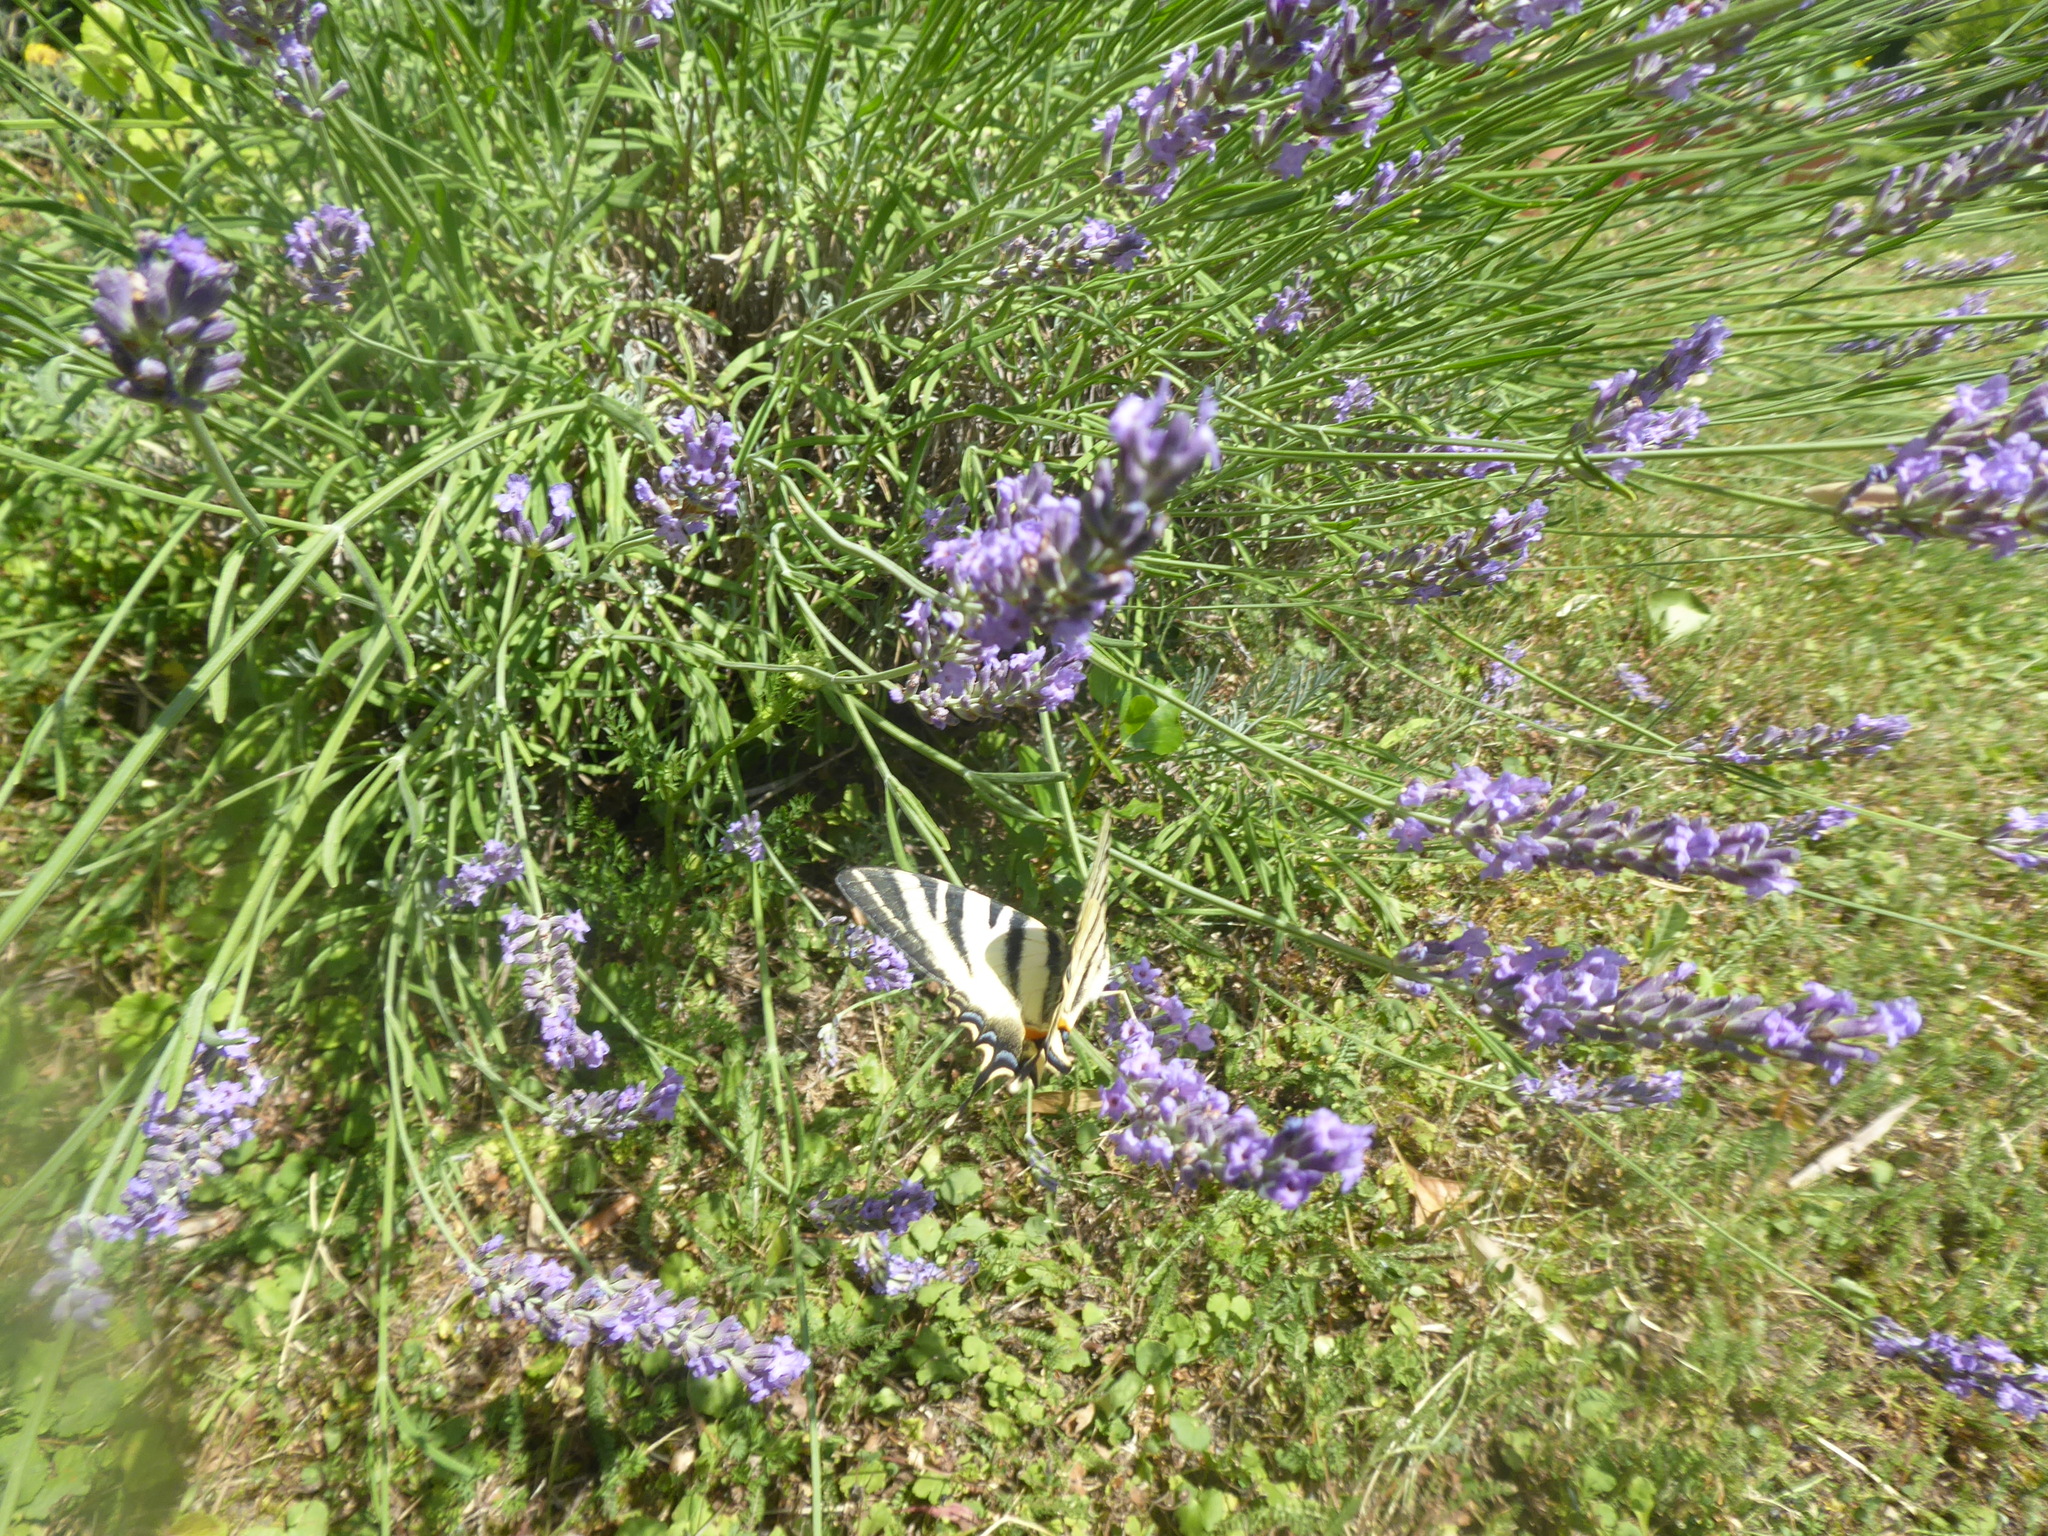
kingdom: Animalia
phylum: Arthropoda
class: Insecta
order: Lepidoptera
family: Papilionidae
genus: Iphiclides
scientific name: Iphiclides podalirius
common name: Scarce swallowtail
